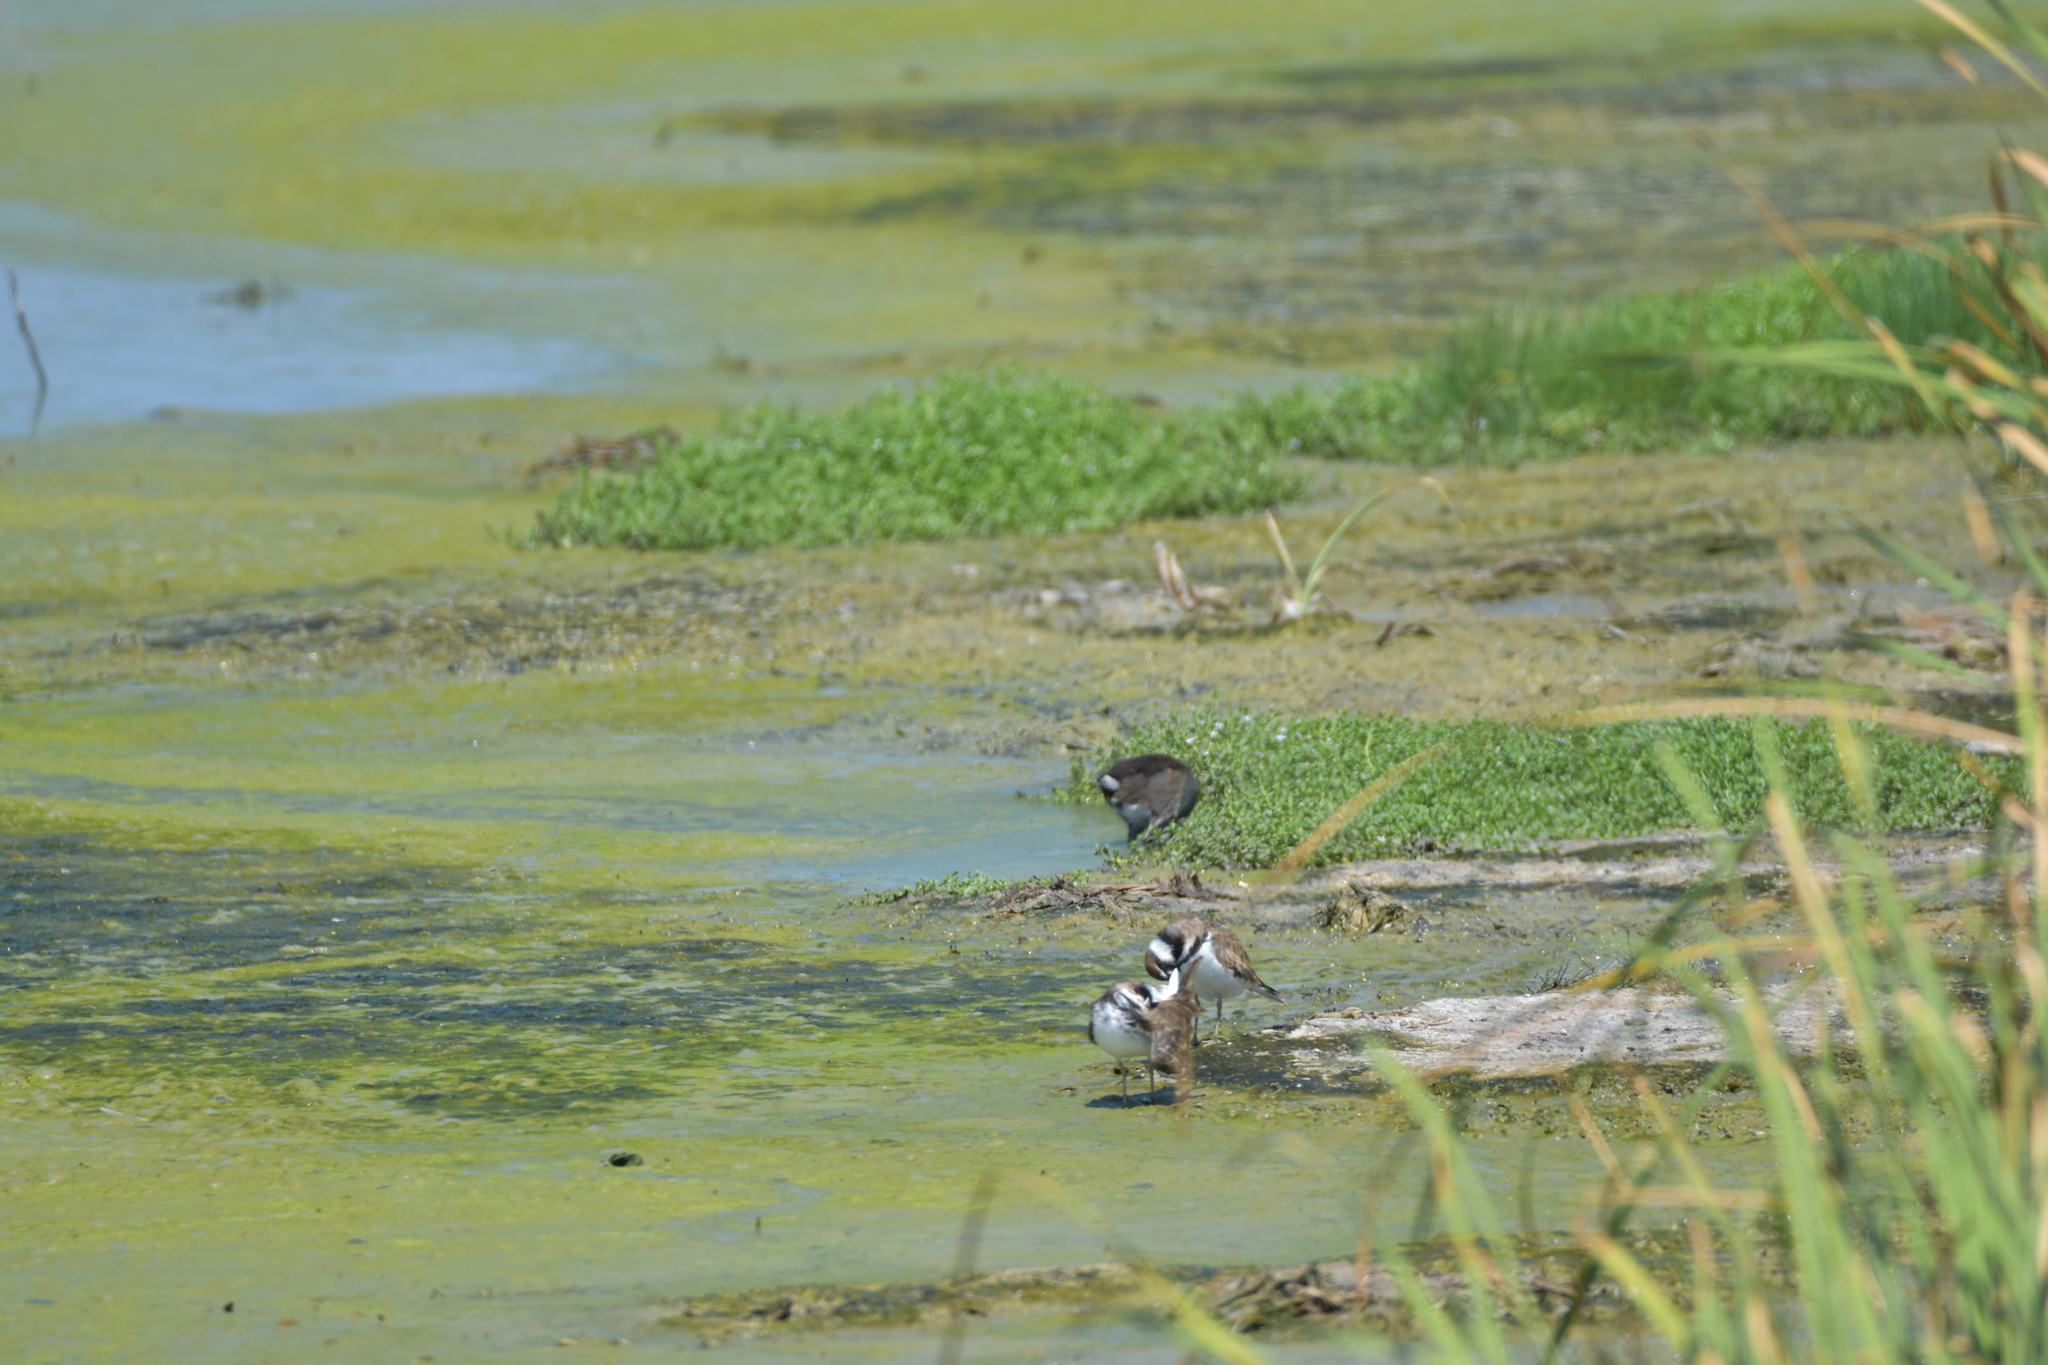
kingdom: Animalia
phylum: Chordata
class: Aves
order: Charadriiformes
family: Charadriidae
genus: Charadrius
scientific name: Charadrius vociferus
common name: Killdeer
